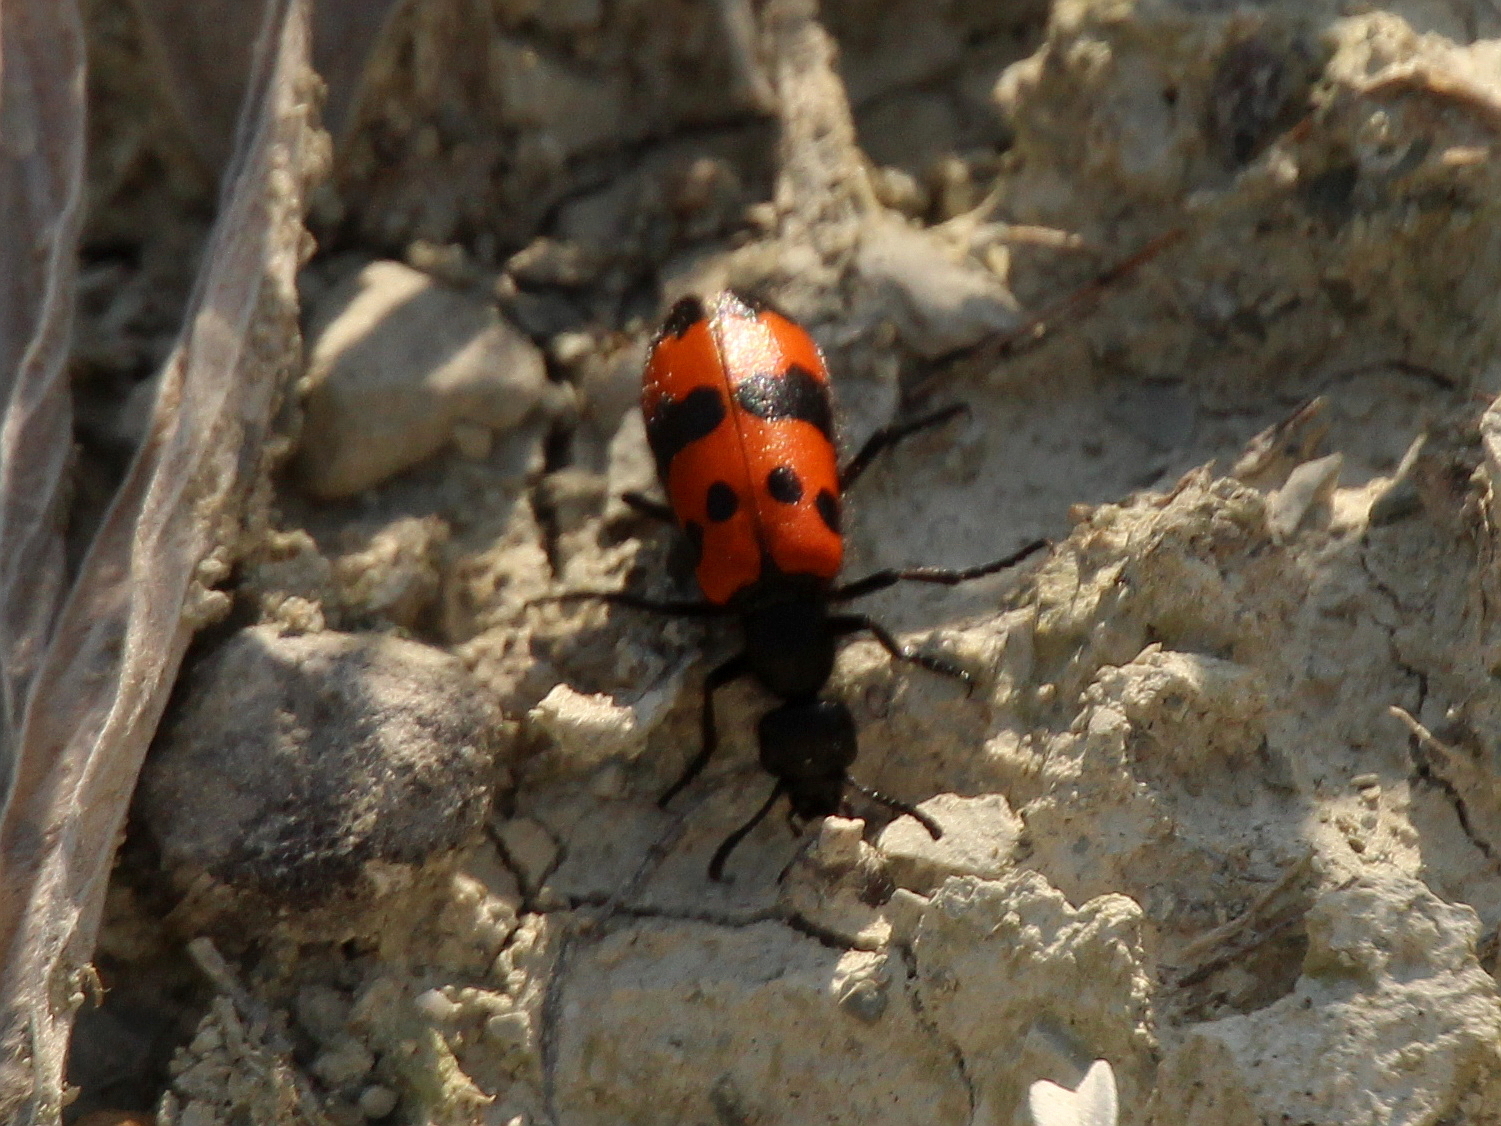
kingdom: Animalia
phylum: Arthropoda
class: Insecta
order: Coleoptera
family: Meloidae
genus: Mylabris
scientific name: Mylabris quadripunctata
